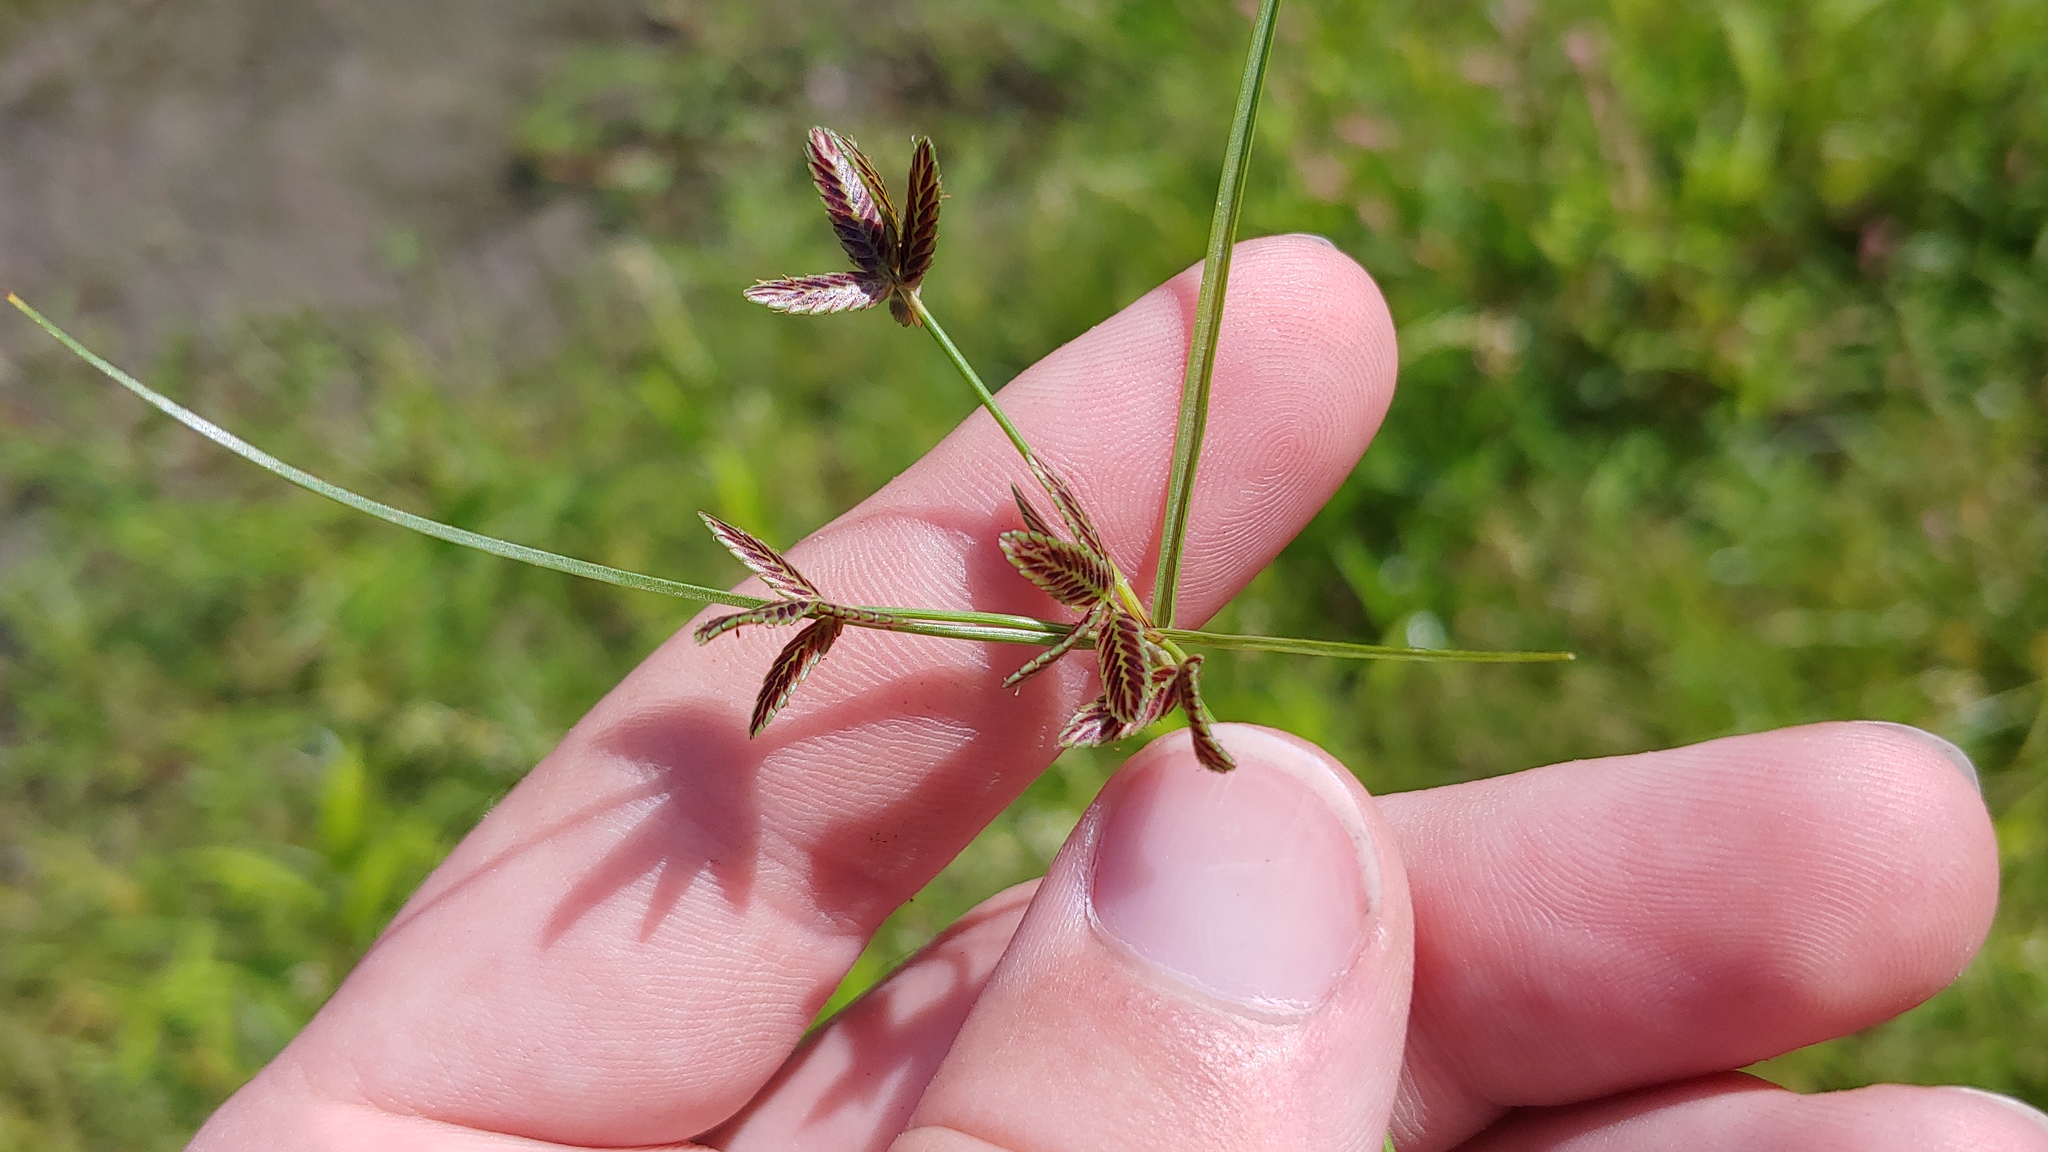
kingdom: Plantae
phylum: Tracheophyta
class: Liliopsida
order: Poales
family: Cyperaceae
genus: Cyperus
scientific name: Cyperus bipartitus
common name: Brook flatsedge
